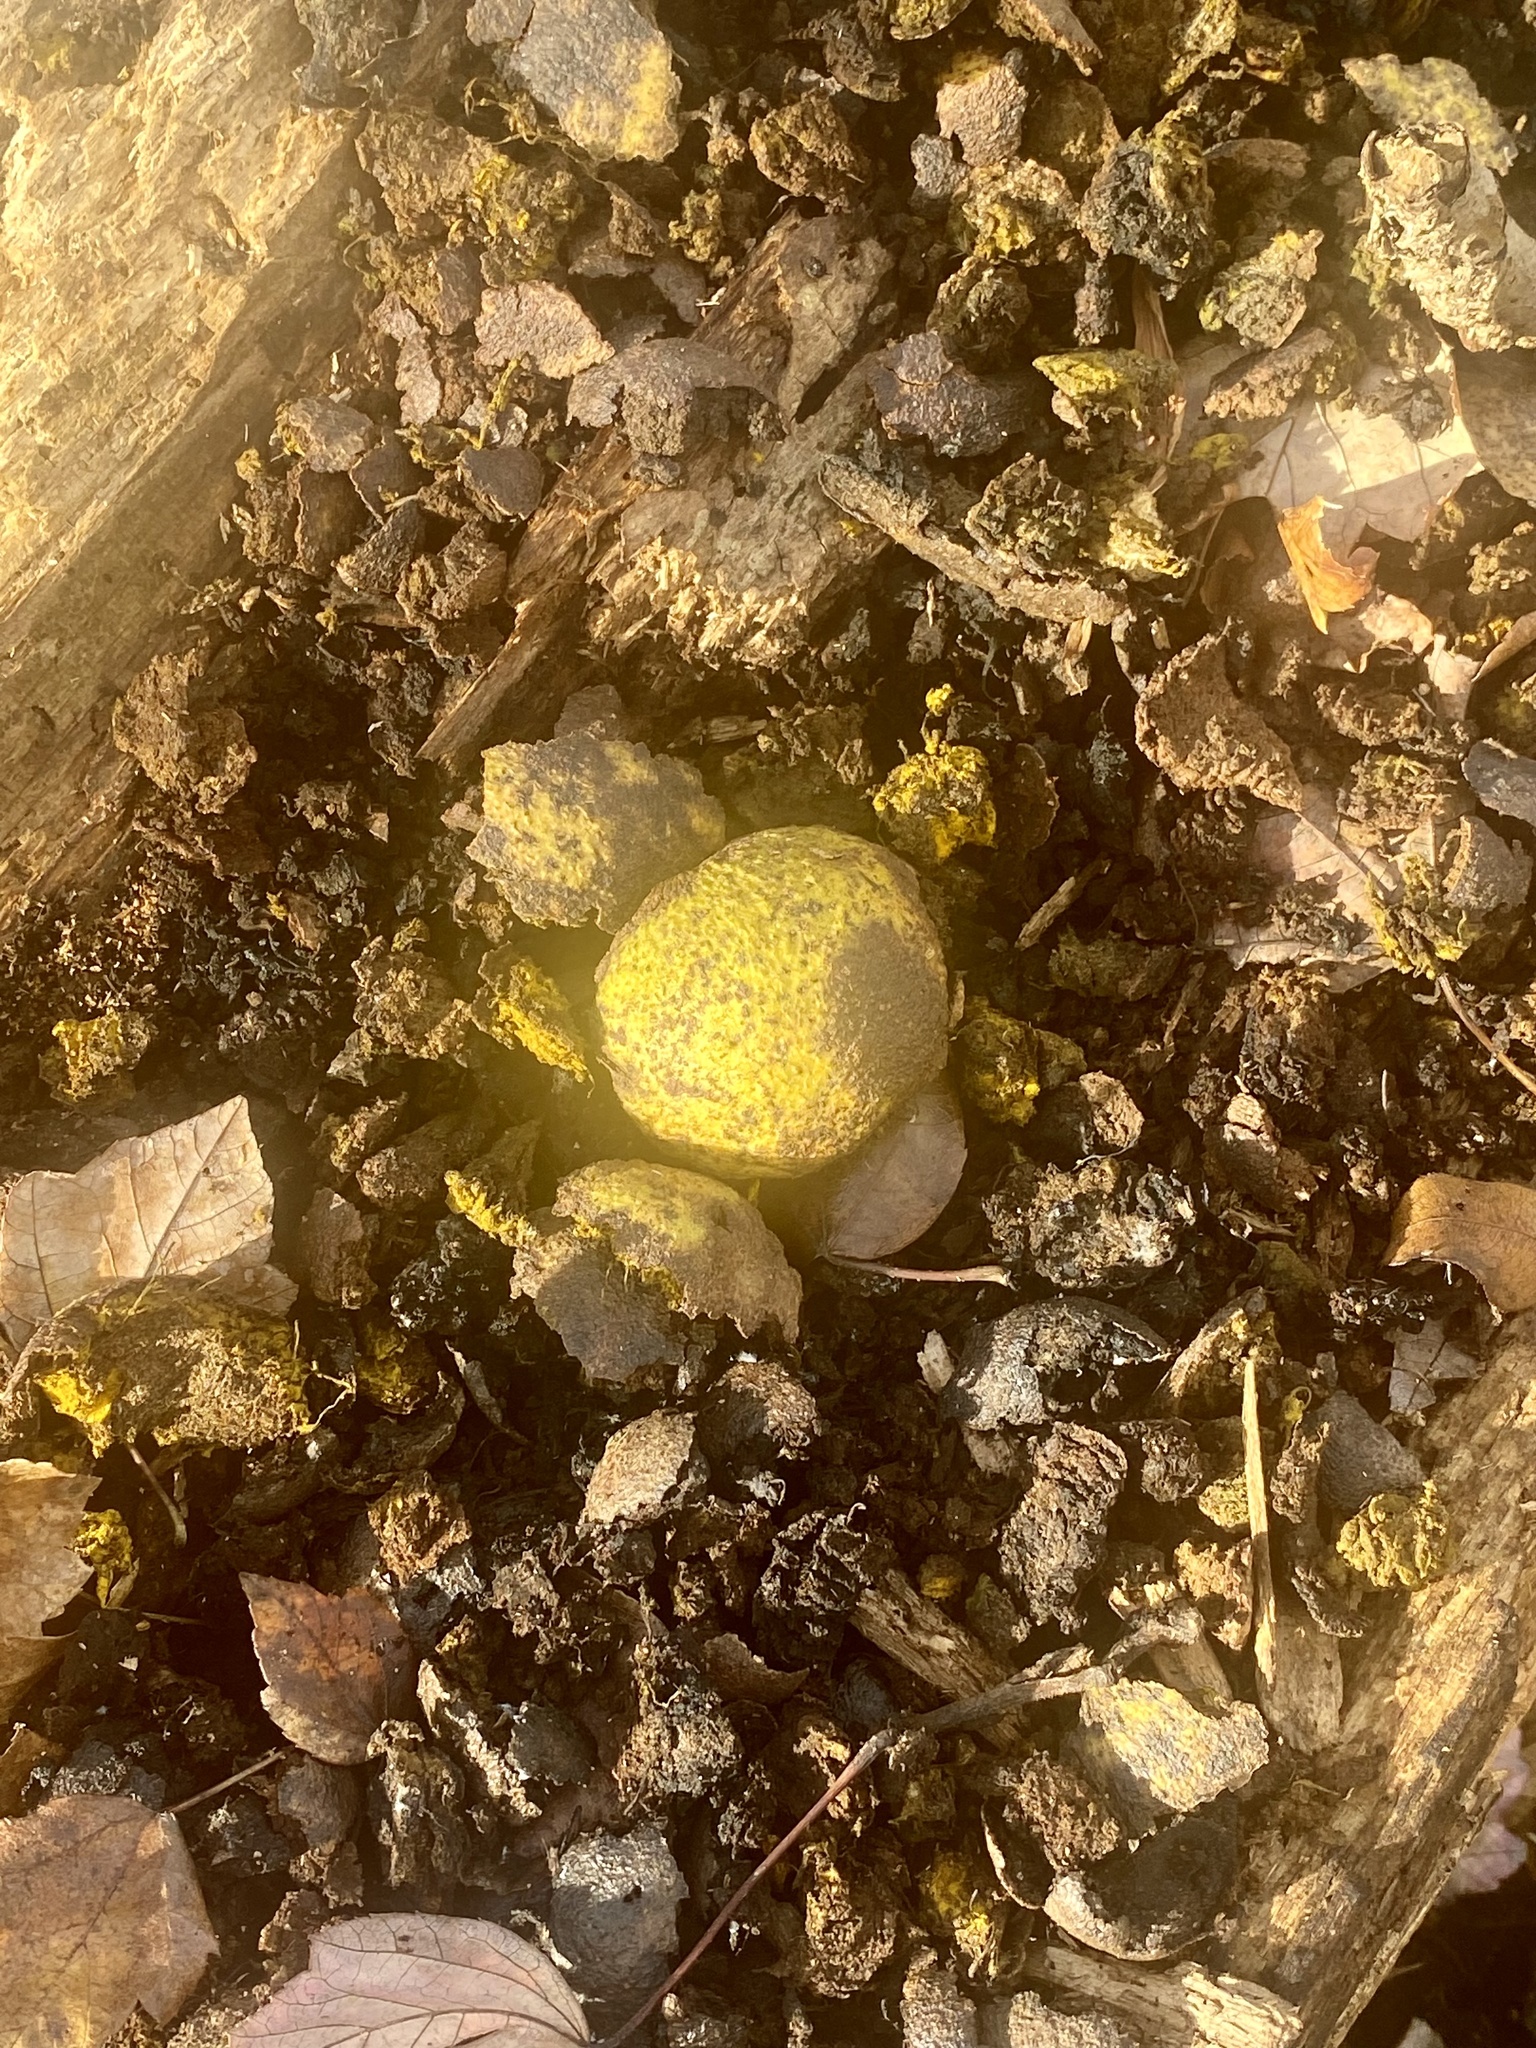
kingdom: Plantae
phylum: Tracheophyta
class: Magnoliopsida
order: Fagales
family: Juglandaceae
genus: Juglans
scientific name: Juglans nigra
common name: Black walnut
